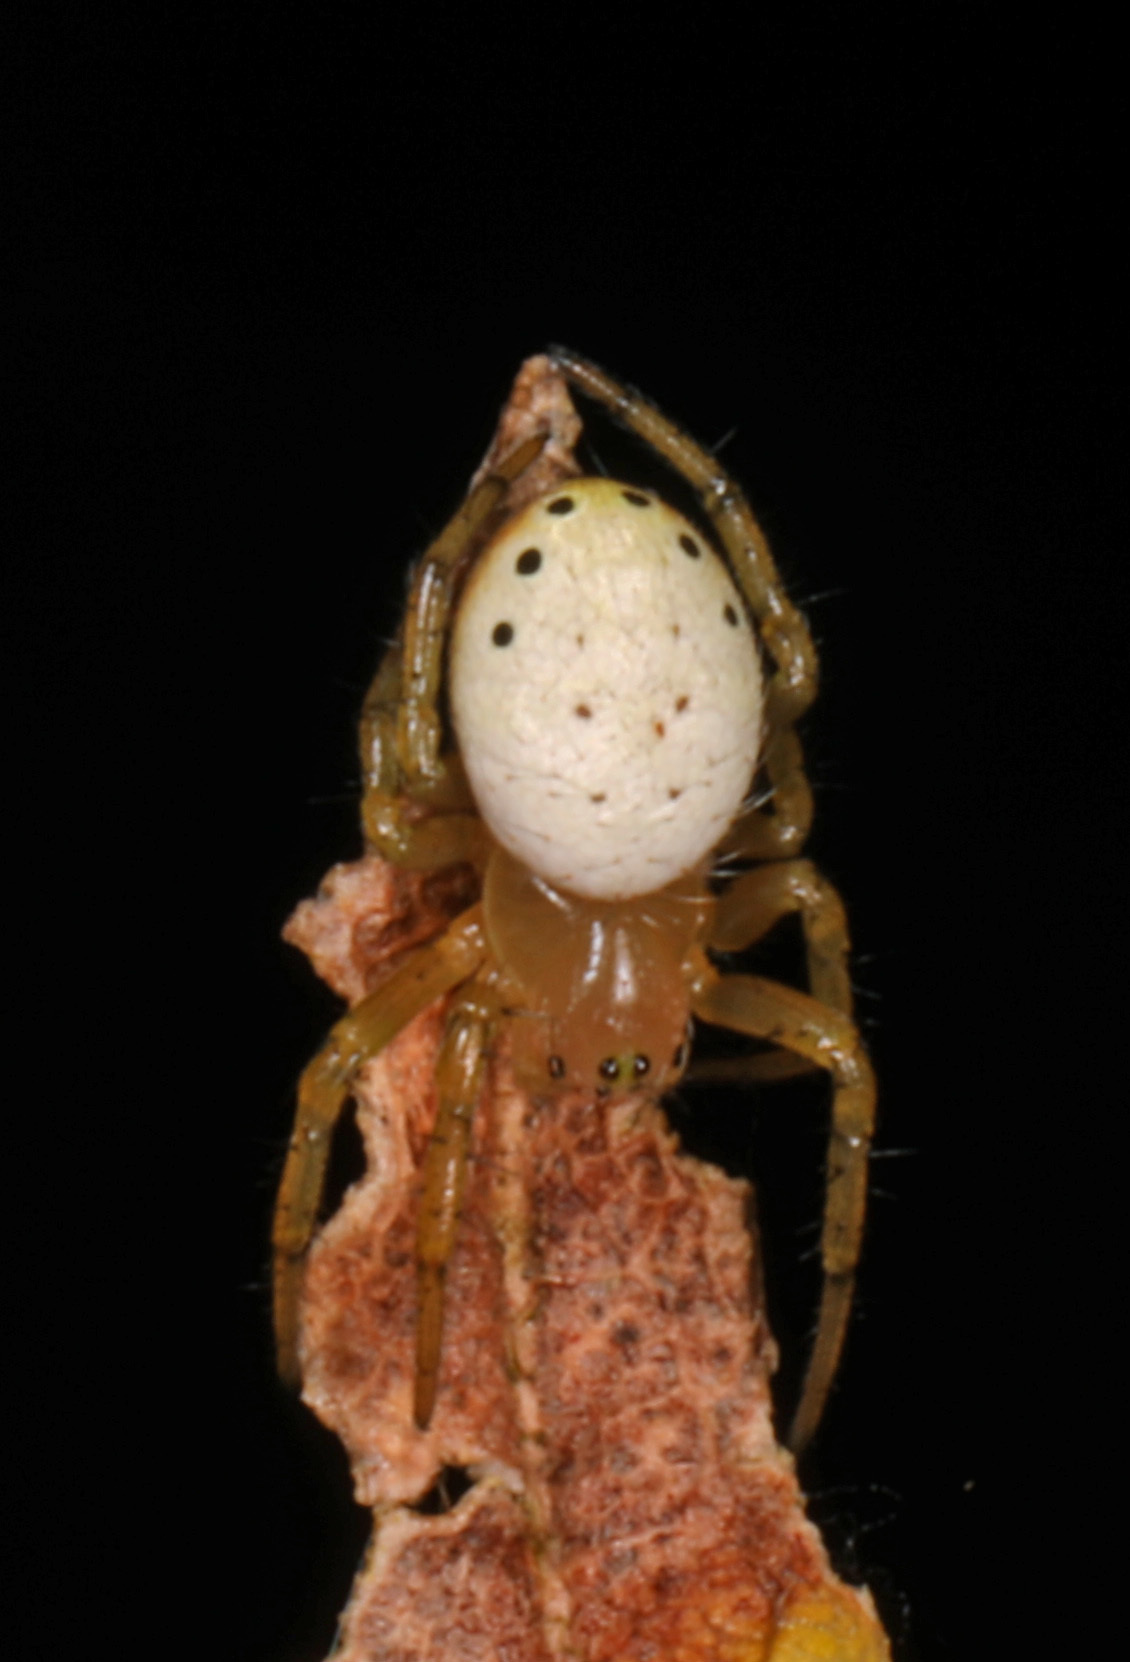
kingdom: Animalia
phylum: Arthropoda
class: Arachnida
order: Araneae
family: Araneidae
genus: Araniella
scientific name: Araniella displicata
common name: Sixspotted orb weaver
